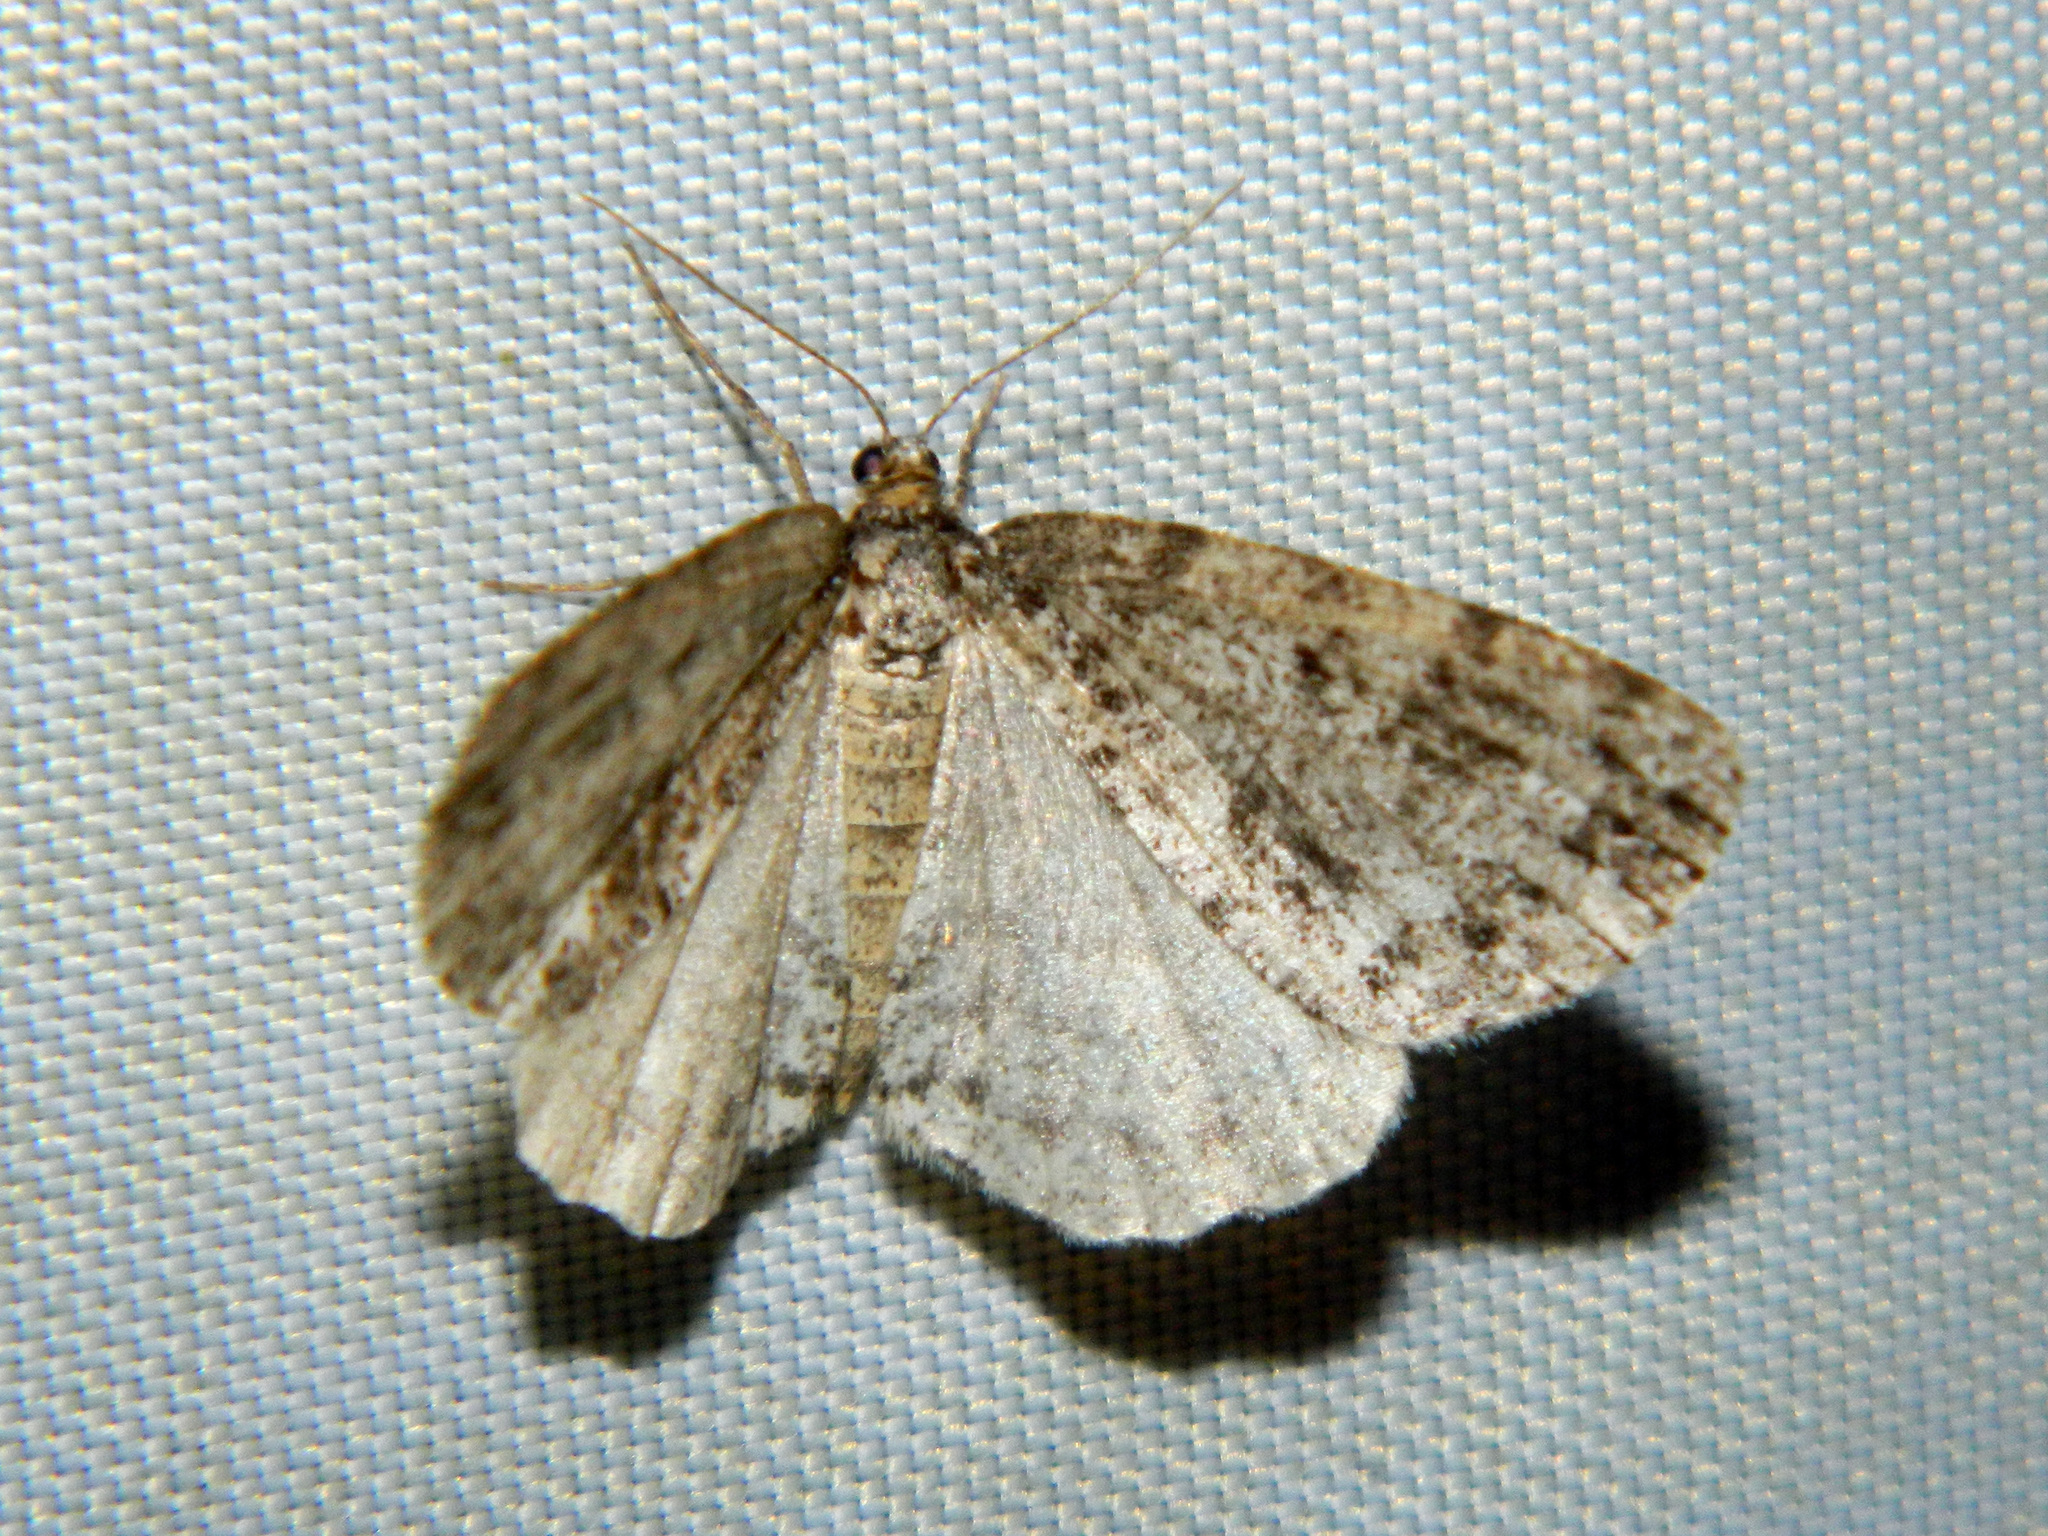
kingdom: Animalia
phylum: Arthropoda
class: Insecta
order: Lepidoptera
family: Geometridae
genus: Orthofidonia
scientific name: Orthofidonia exornata
